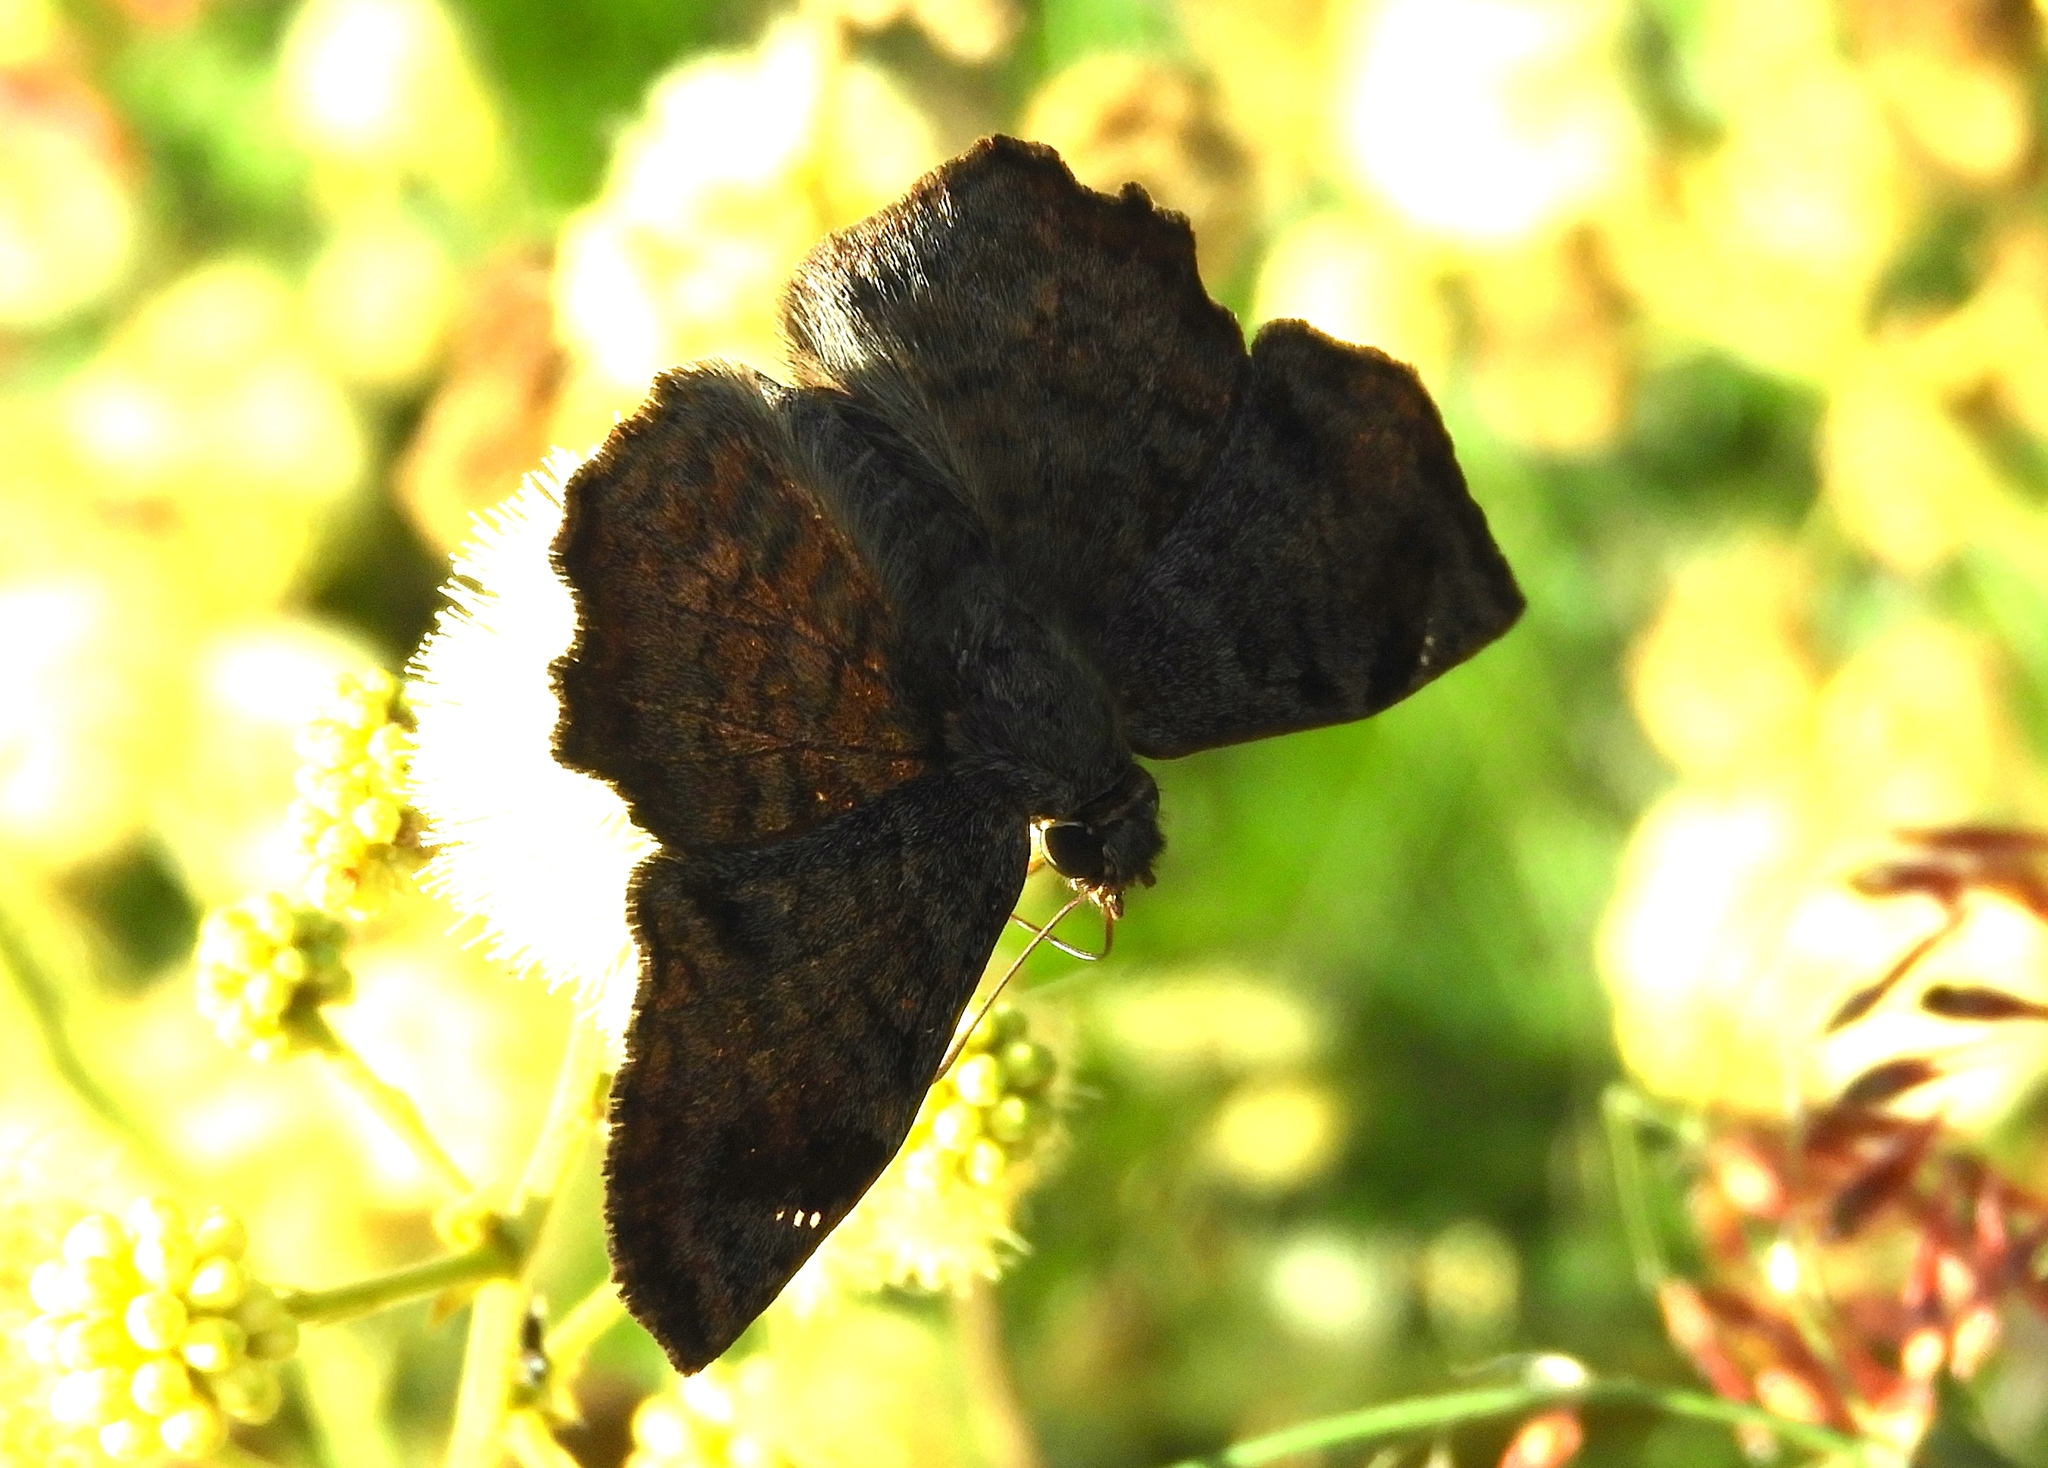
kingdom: Animalia
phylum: Arthropoda
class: Insecta
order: Lepidoptera
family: Hesperiidae
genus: Antigonus
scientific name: Antigonus erosus
